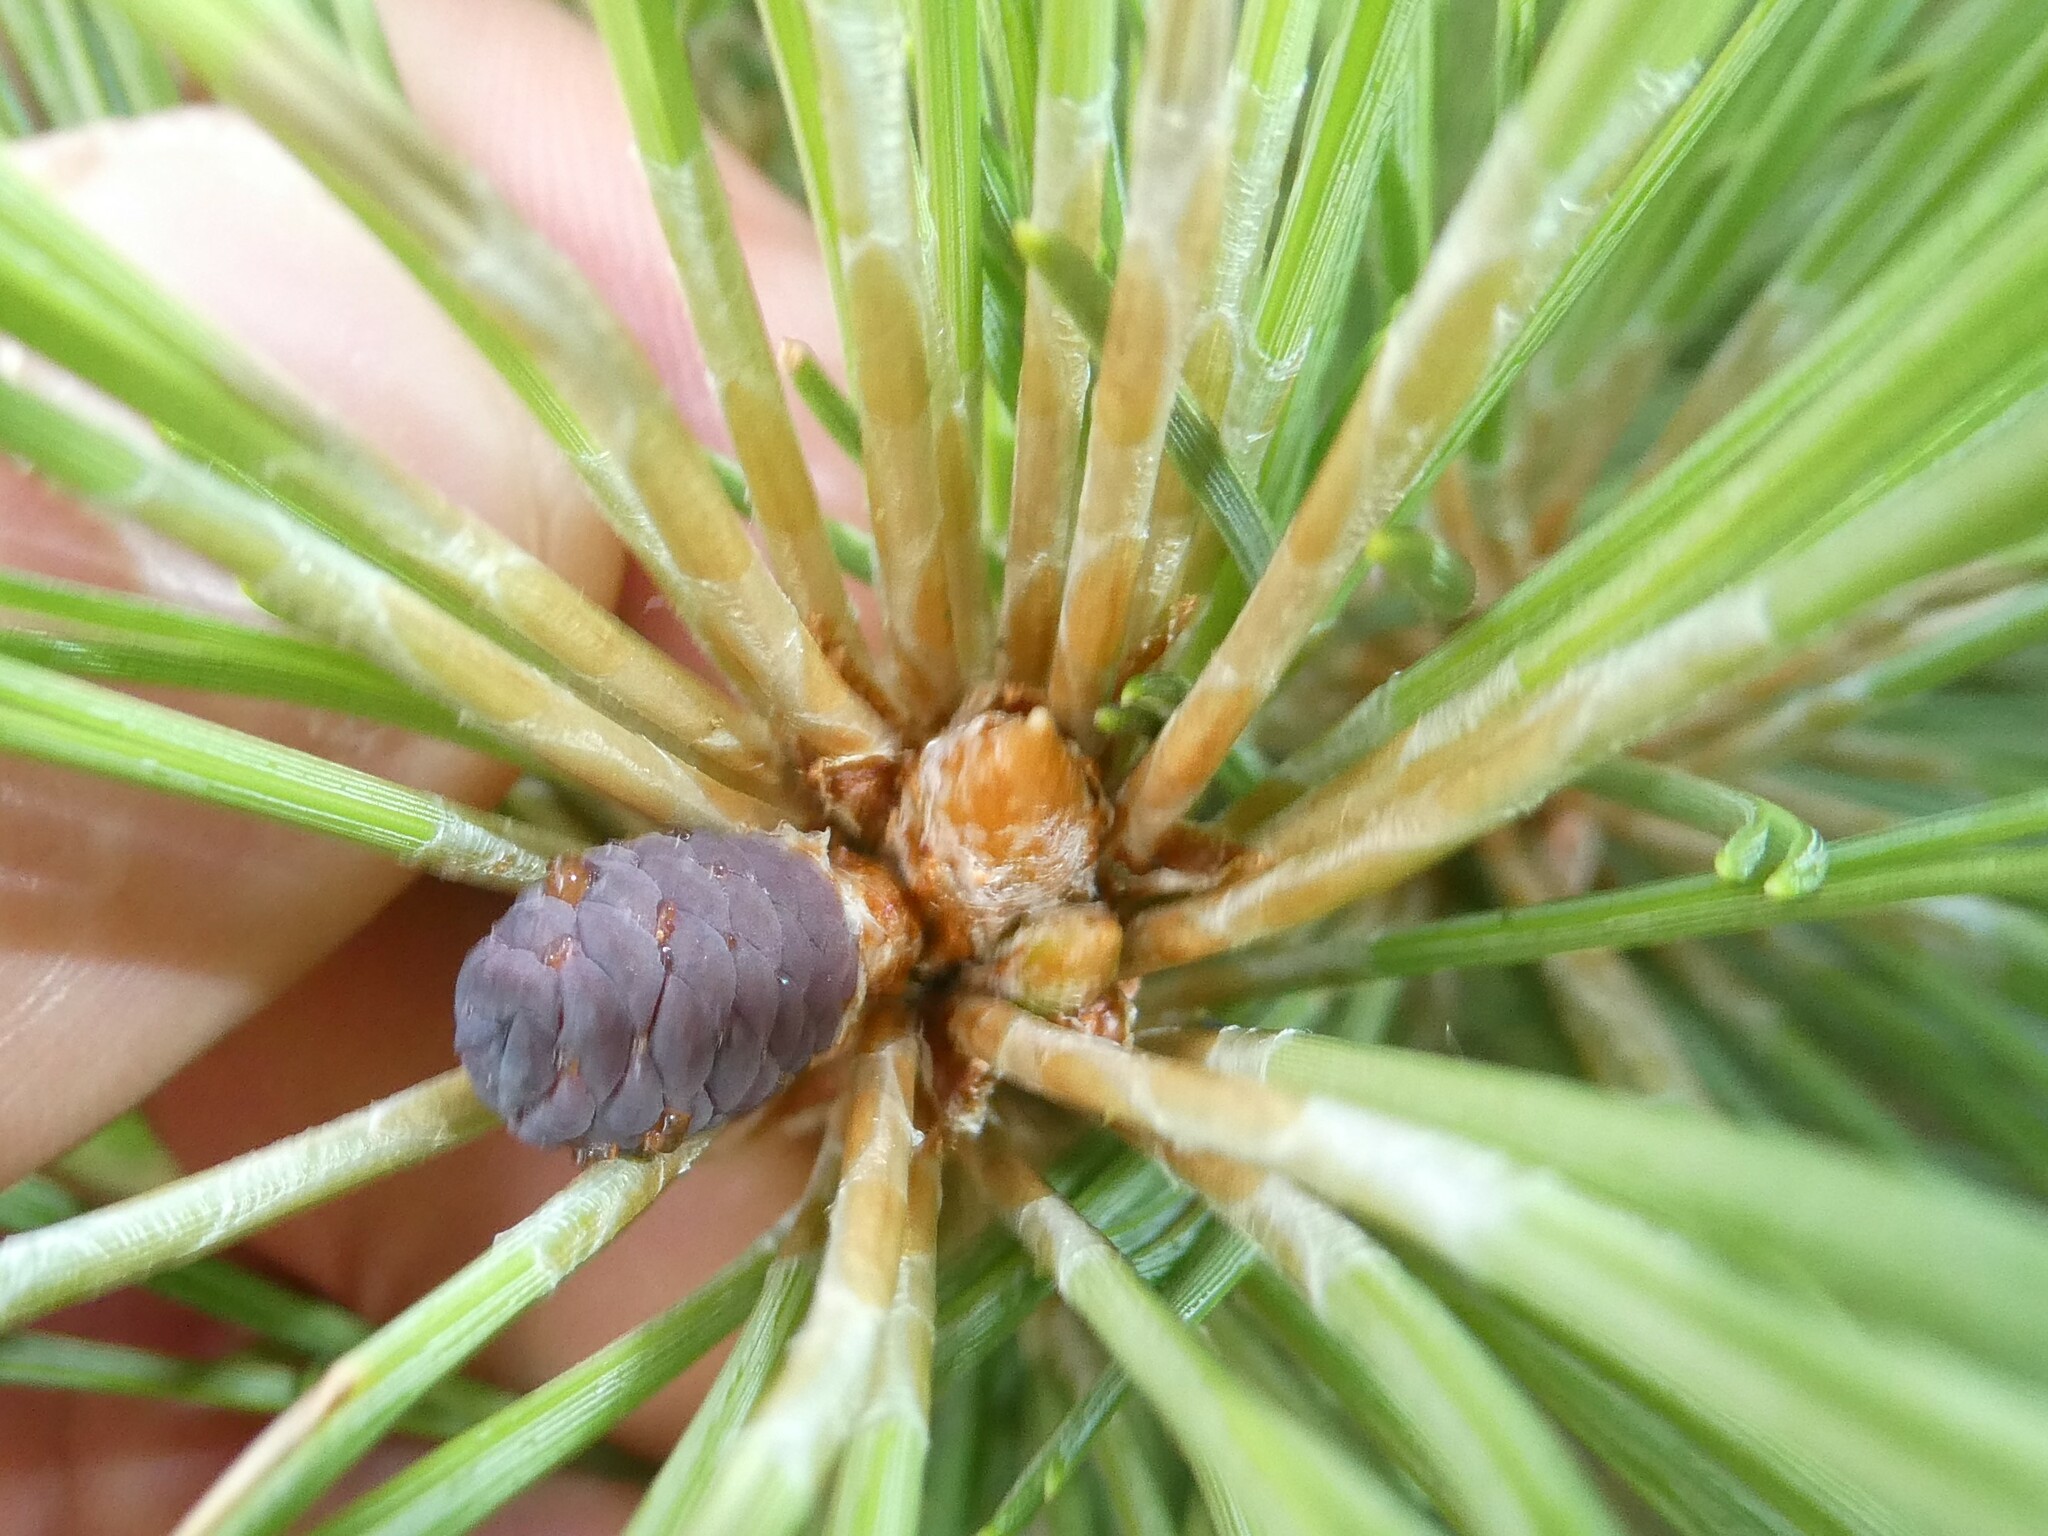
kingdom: Plantae
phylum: Tracheophyta
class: Pinopsida
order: Pinales
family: Pinaceae
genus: Pinus
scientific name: Pinus resinosa
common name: Norway pine
